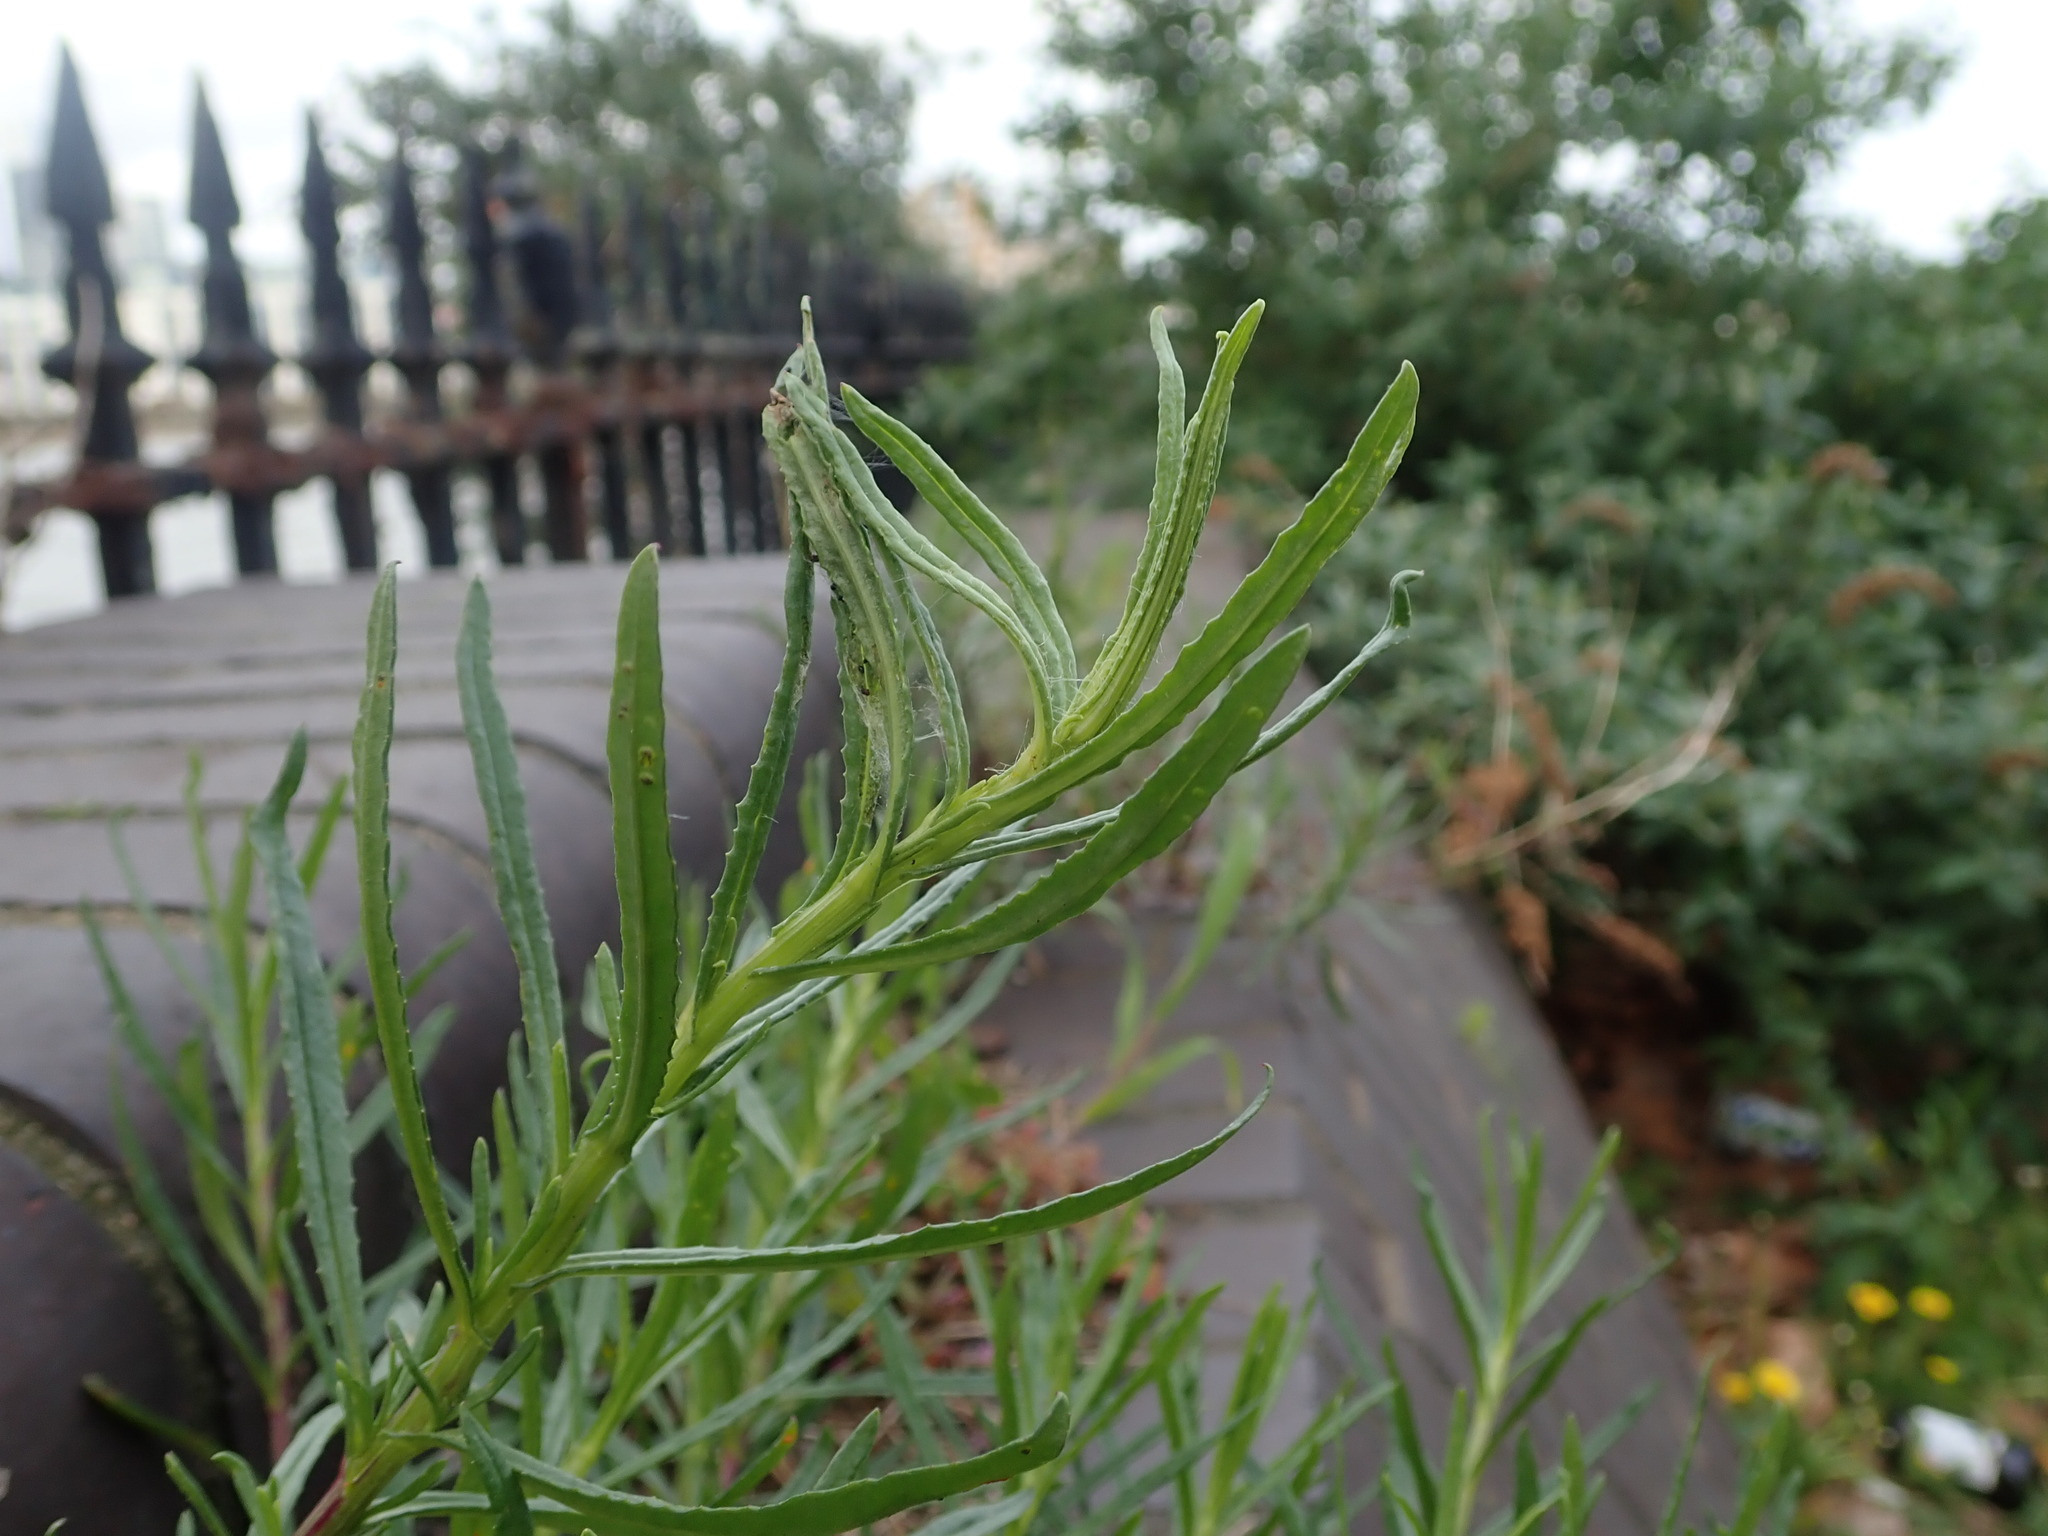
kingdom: Plantae
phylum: Tracheophyta
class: Magnoliopsida
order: Asterales
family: Asteraceae
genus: Senecio
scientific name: Senecio inaequidens
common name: Narrow-leaved ragwort
